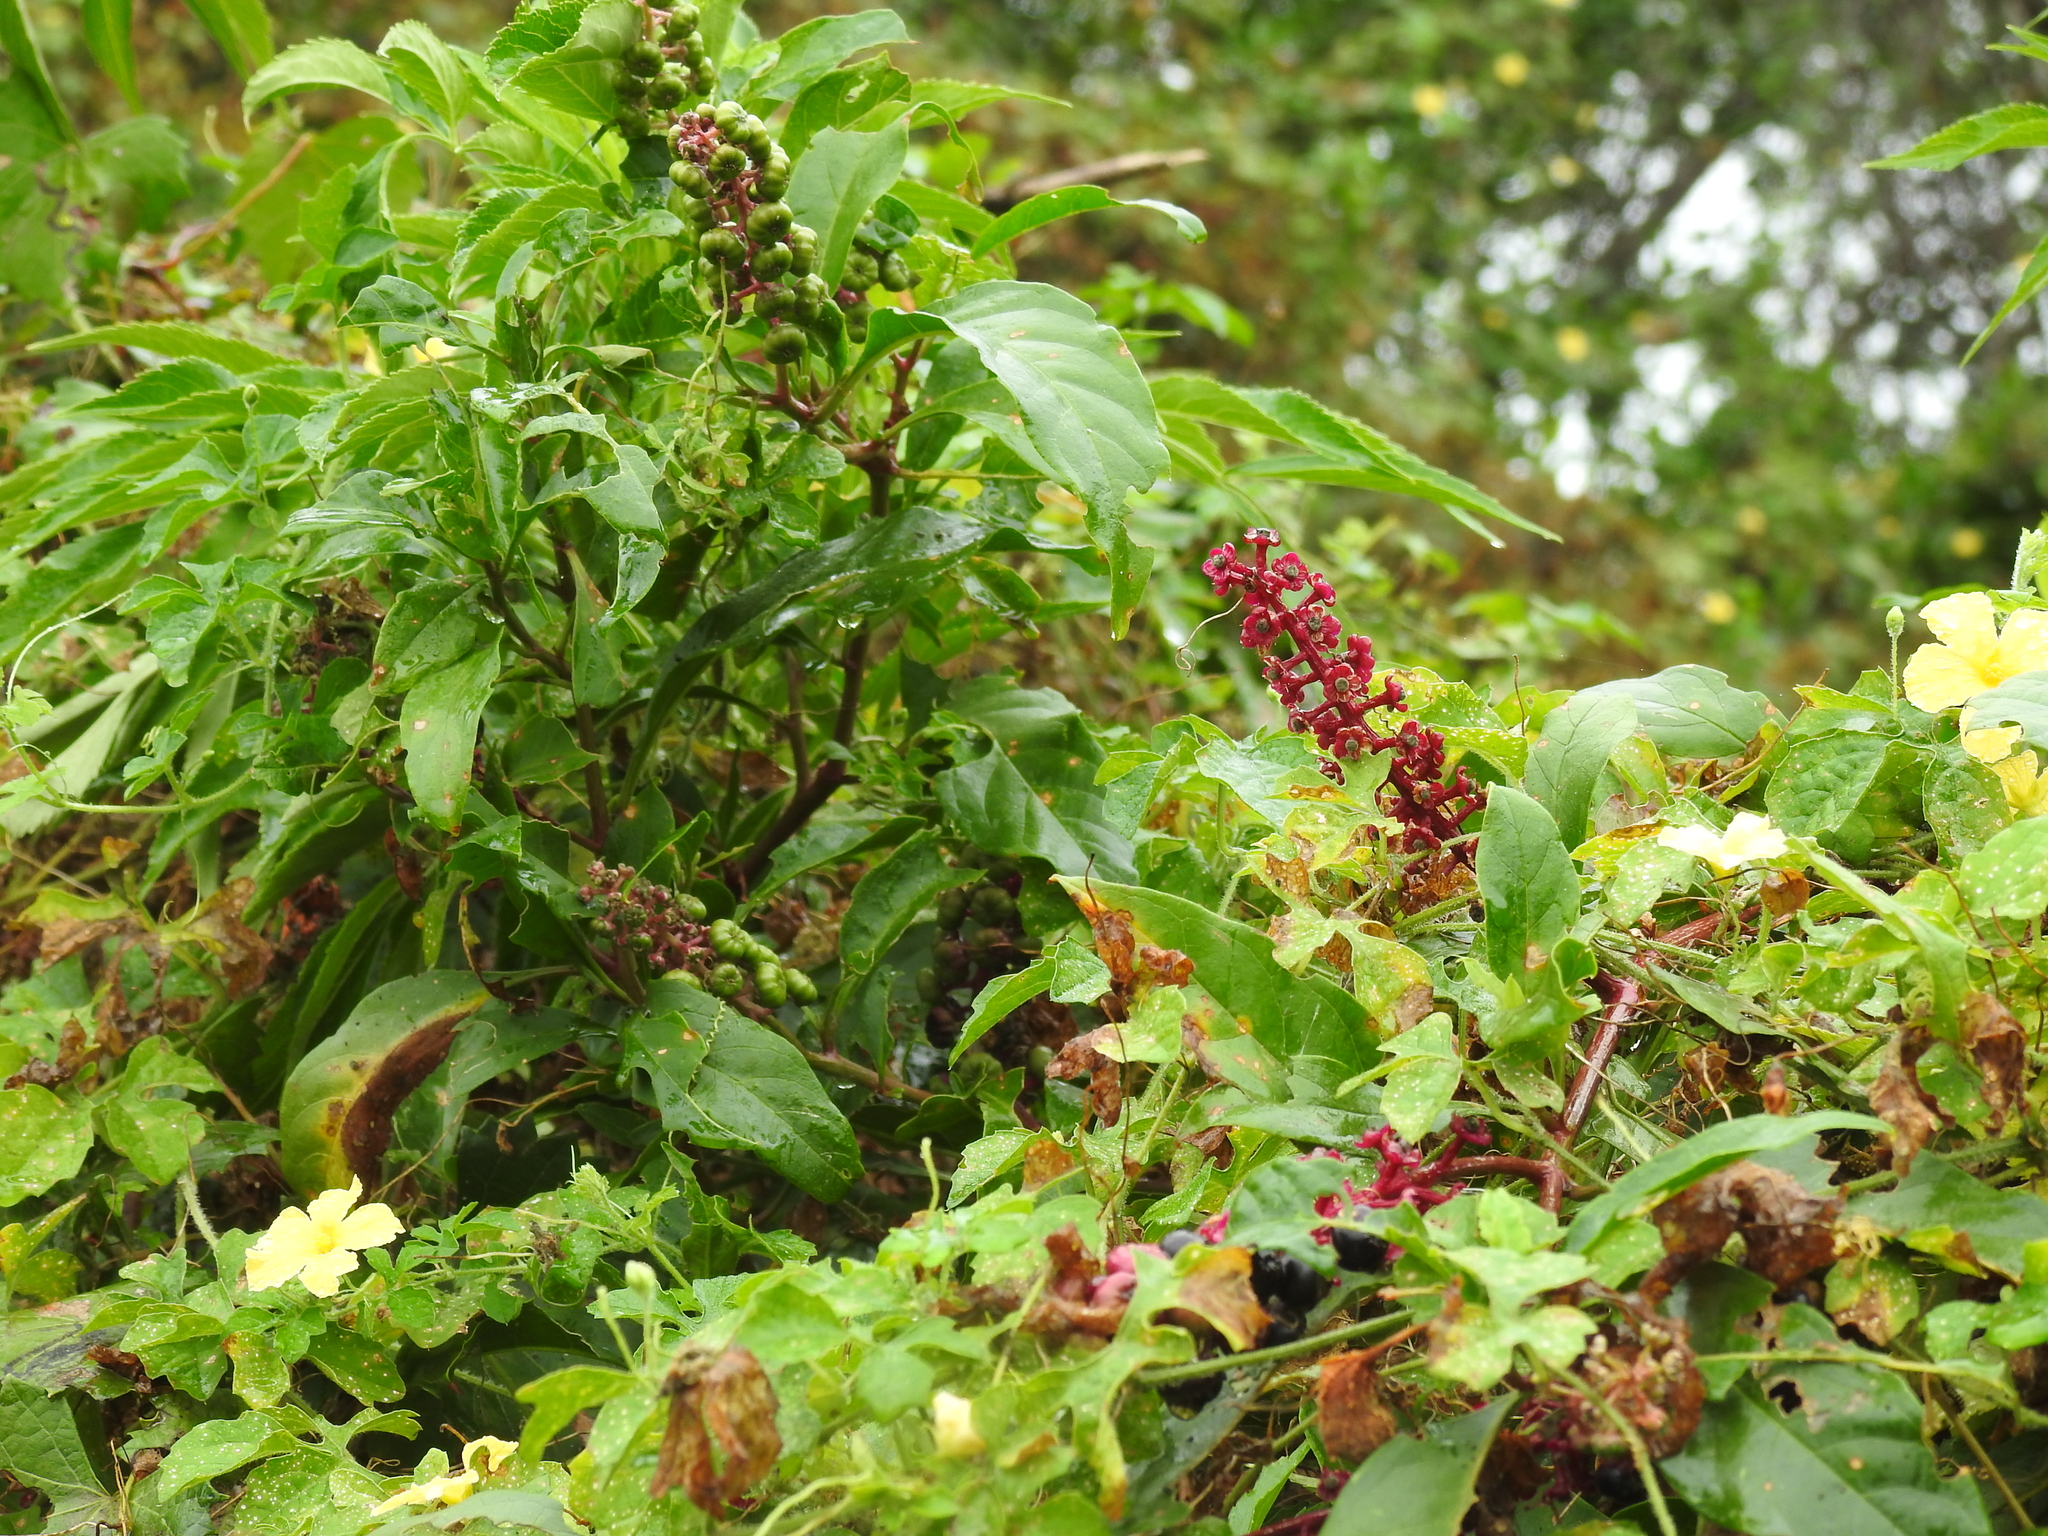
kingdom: Plantae
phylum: Tracheophyta
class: Magnoliopsida
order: Caryophyllales
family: Phytolaccaceae
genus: Phytolacca
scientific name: Phytolacca americana
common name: American pokeweed
